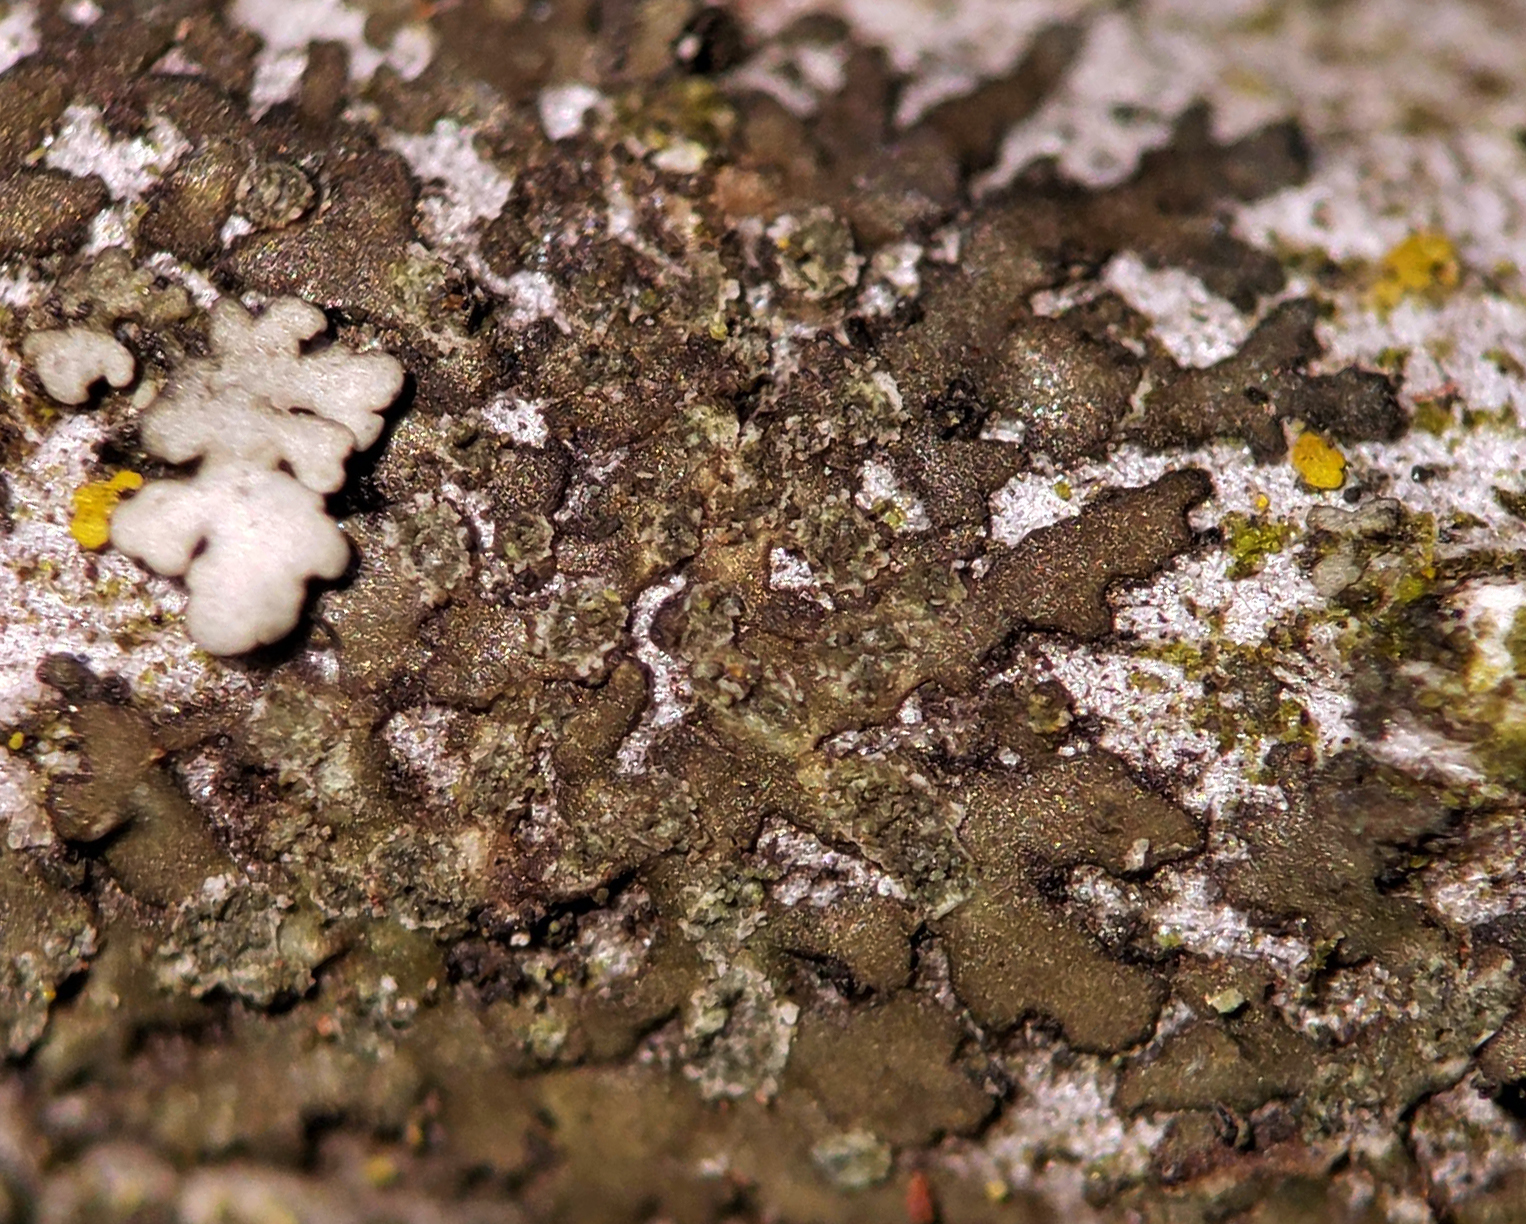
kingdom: Fungi
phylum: Ascomycota
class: Lecanoromycetes
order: Caliciales
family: Physciaceae
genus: Hyperphyscia
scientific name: Hyperphyscia adglutinata
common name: Grainy shadow-crust lichen
